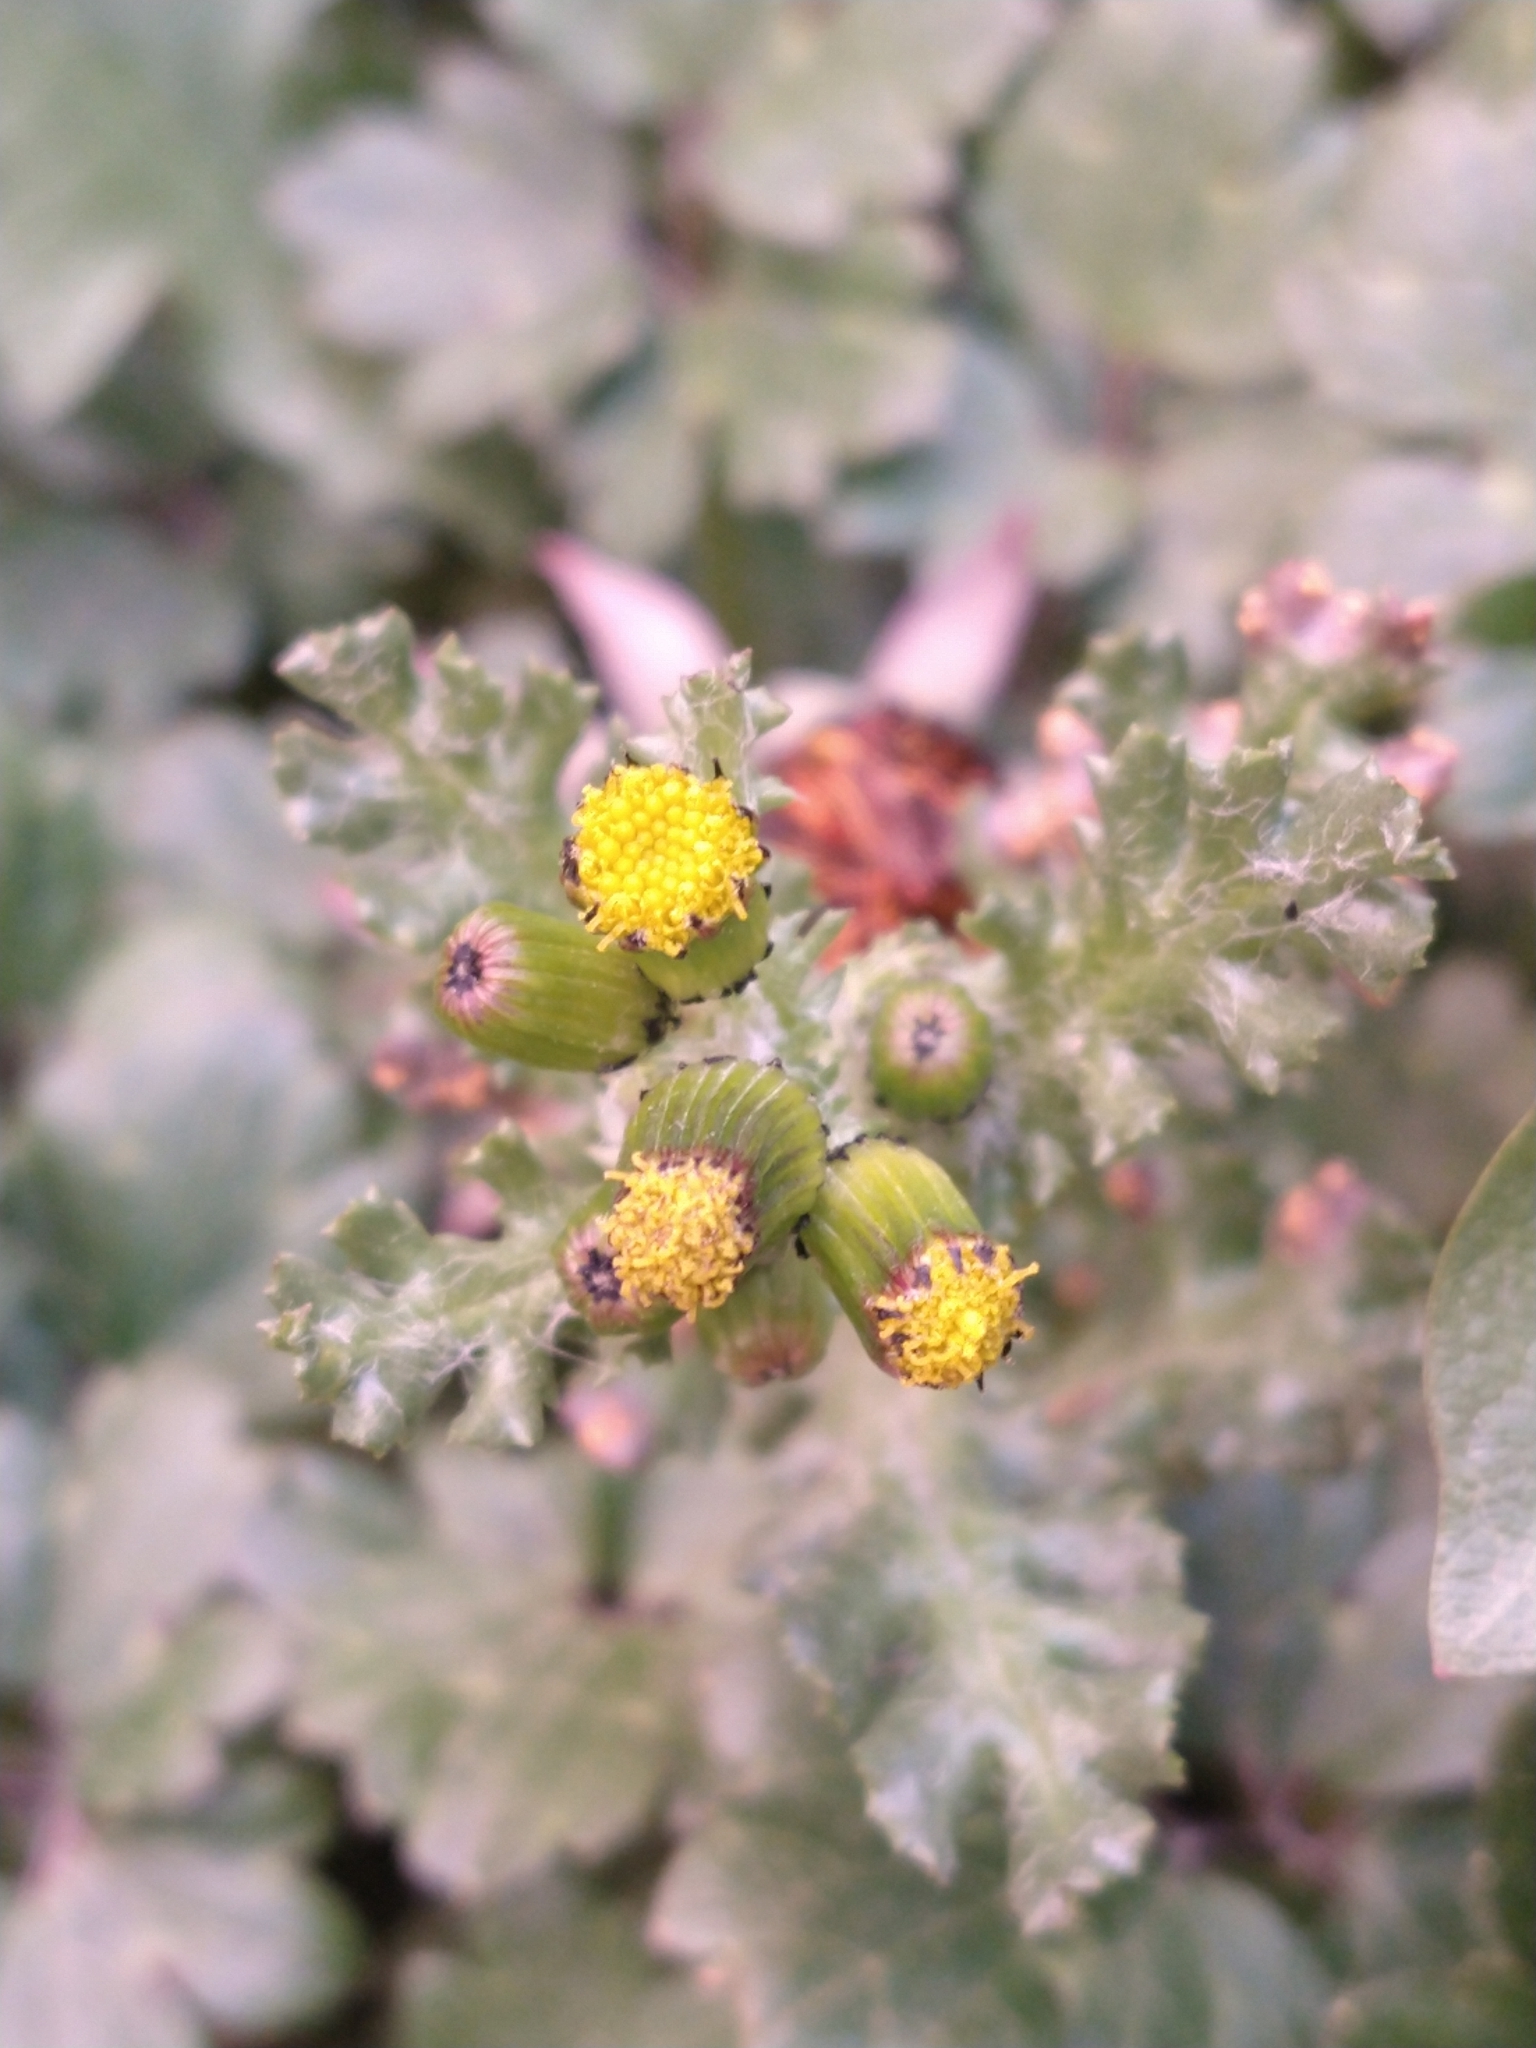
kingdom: Plantae
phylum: Tracheophyta
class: Magnoliopsida
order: Asterales
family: Asteraceae
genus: Senecio
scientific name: Senecio vulgaris
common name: Old-man-in-the-spring
